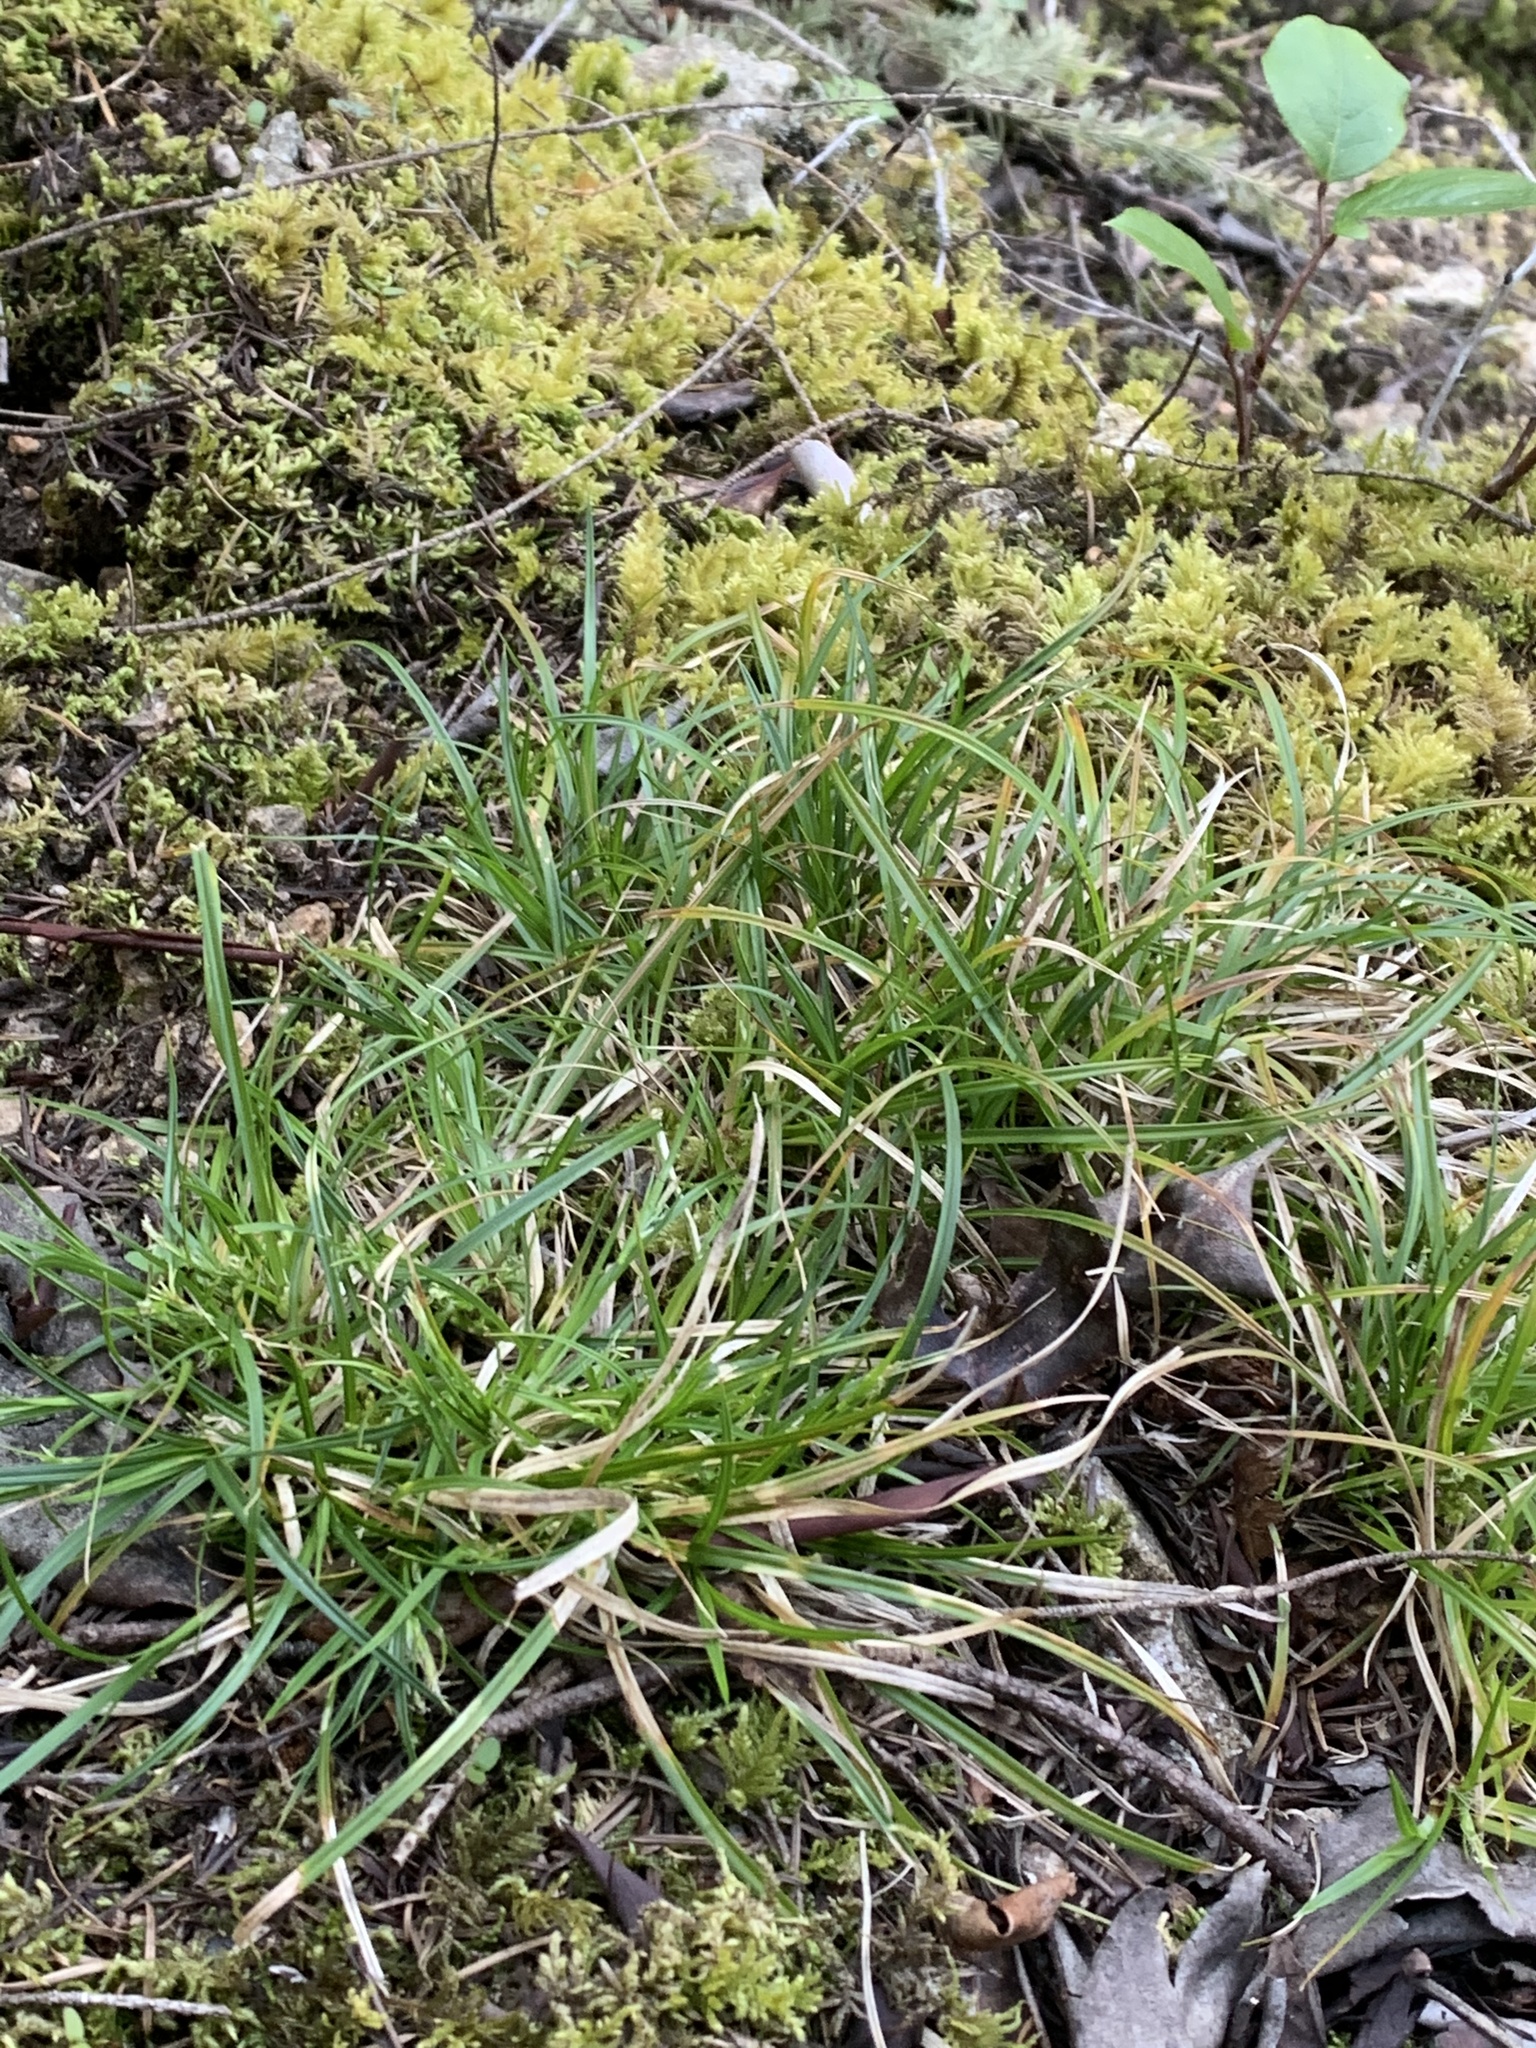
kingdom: Plantae
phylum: Tracheophyta
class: Liliopsida
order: Poales
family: Cyperaceae
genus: Carex
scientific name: Carex rossii
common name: Ross' sedge
